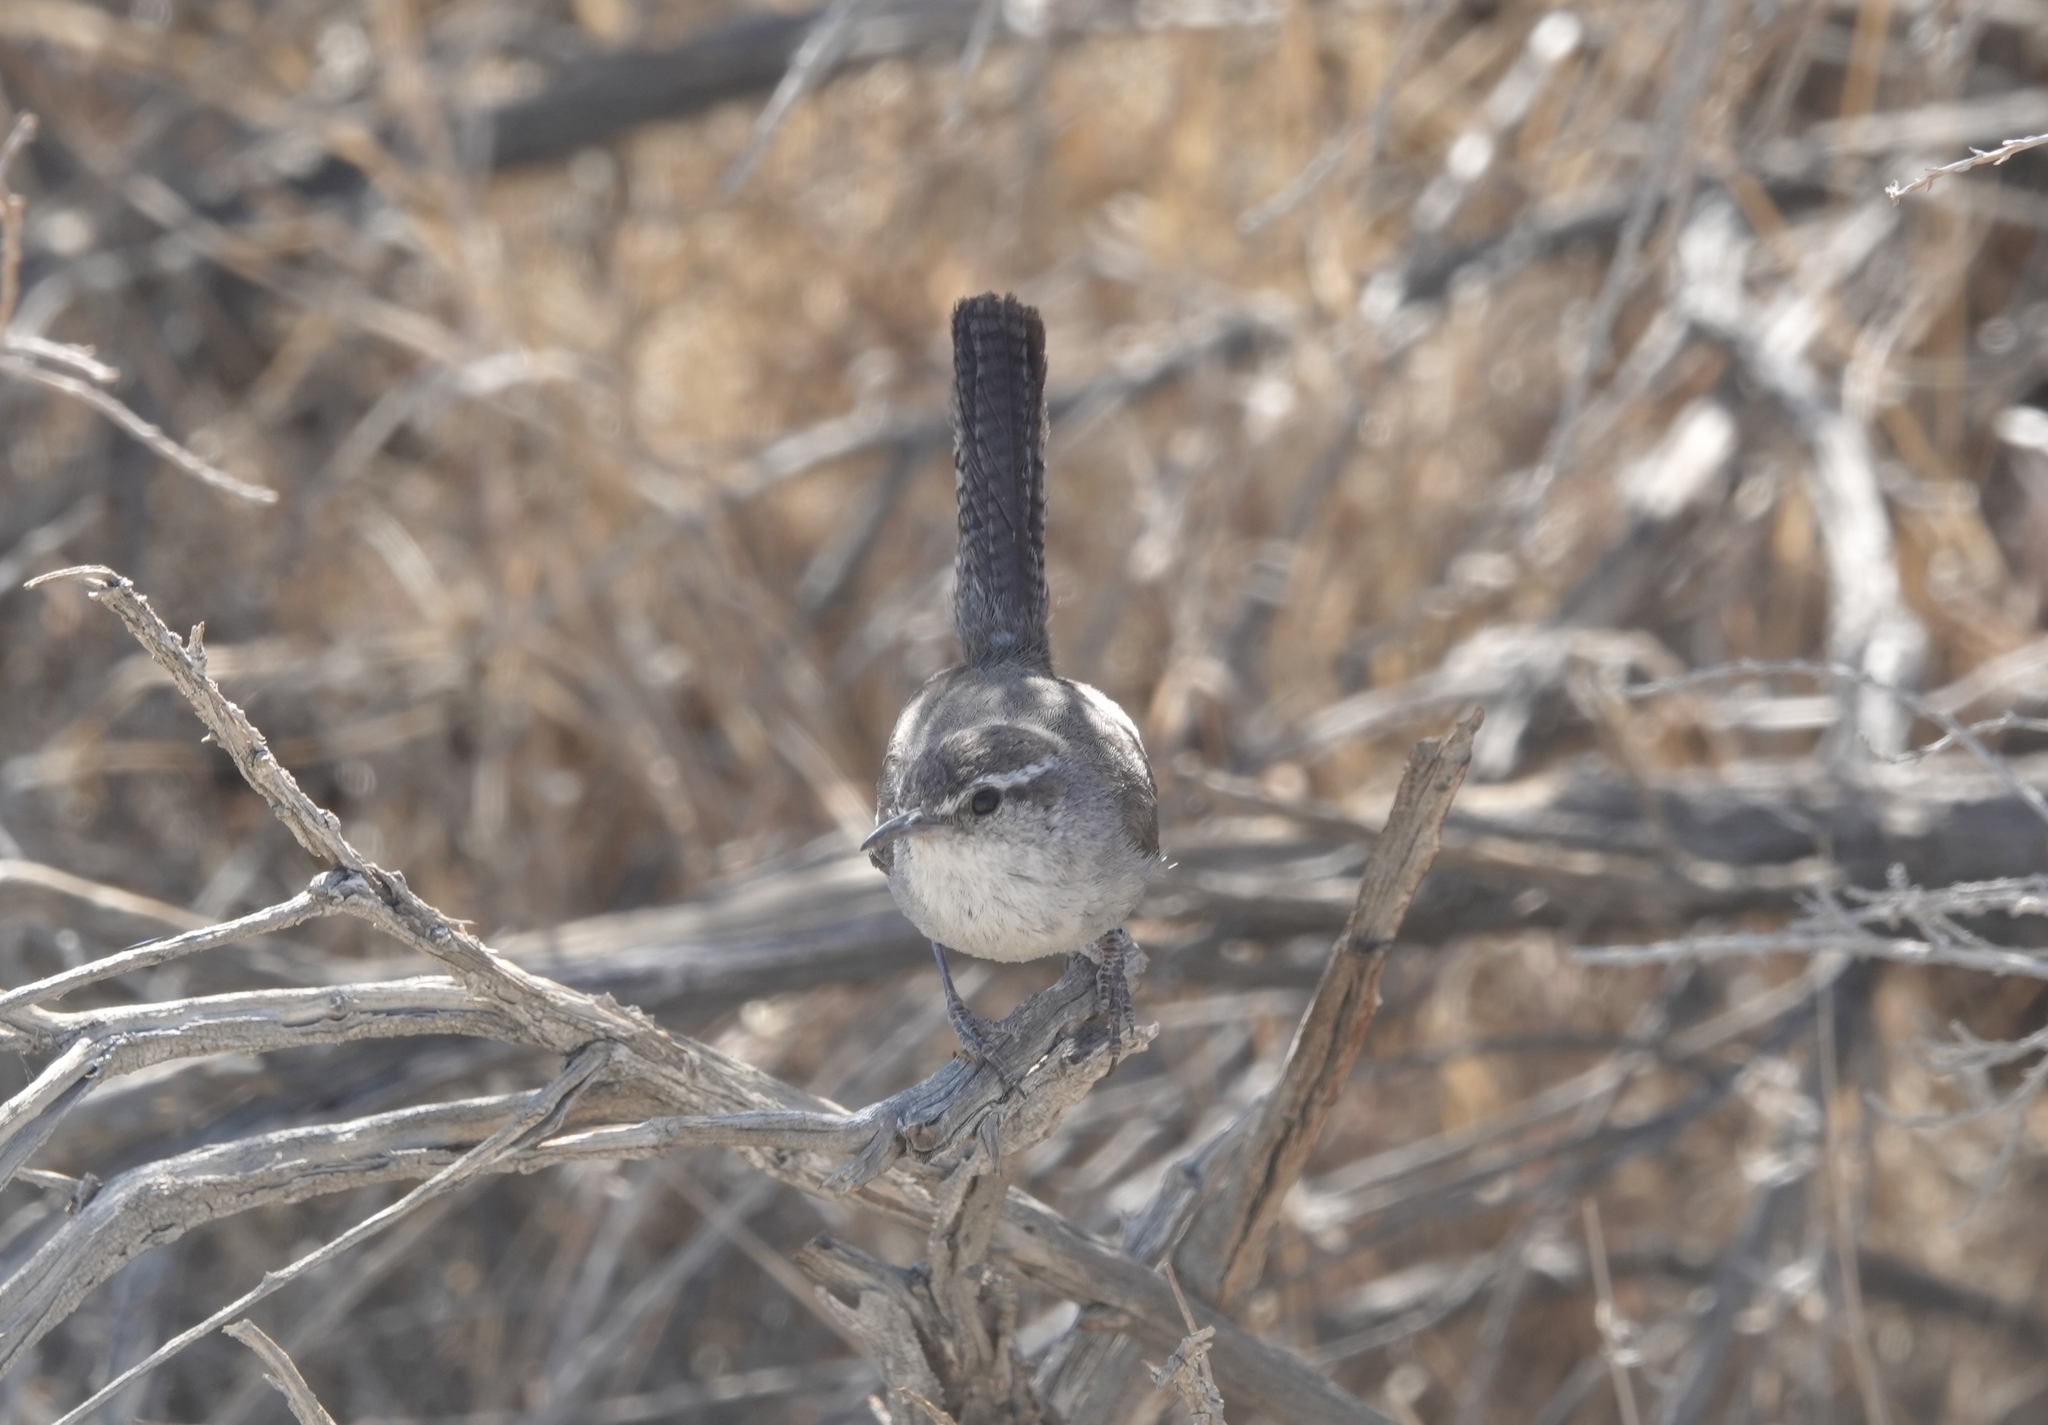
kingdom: Animalia
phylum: Chordata
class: Aves
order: Passeriformes
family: Troglodytidae
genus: Thryomanes
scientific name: Thryomanes bewickii
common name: Bewick's wren
